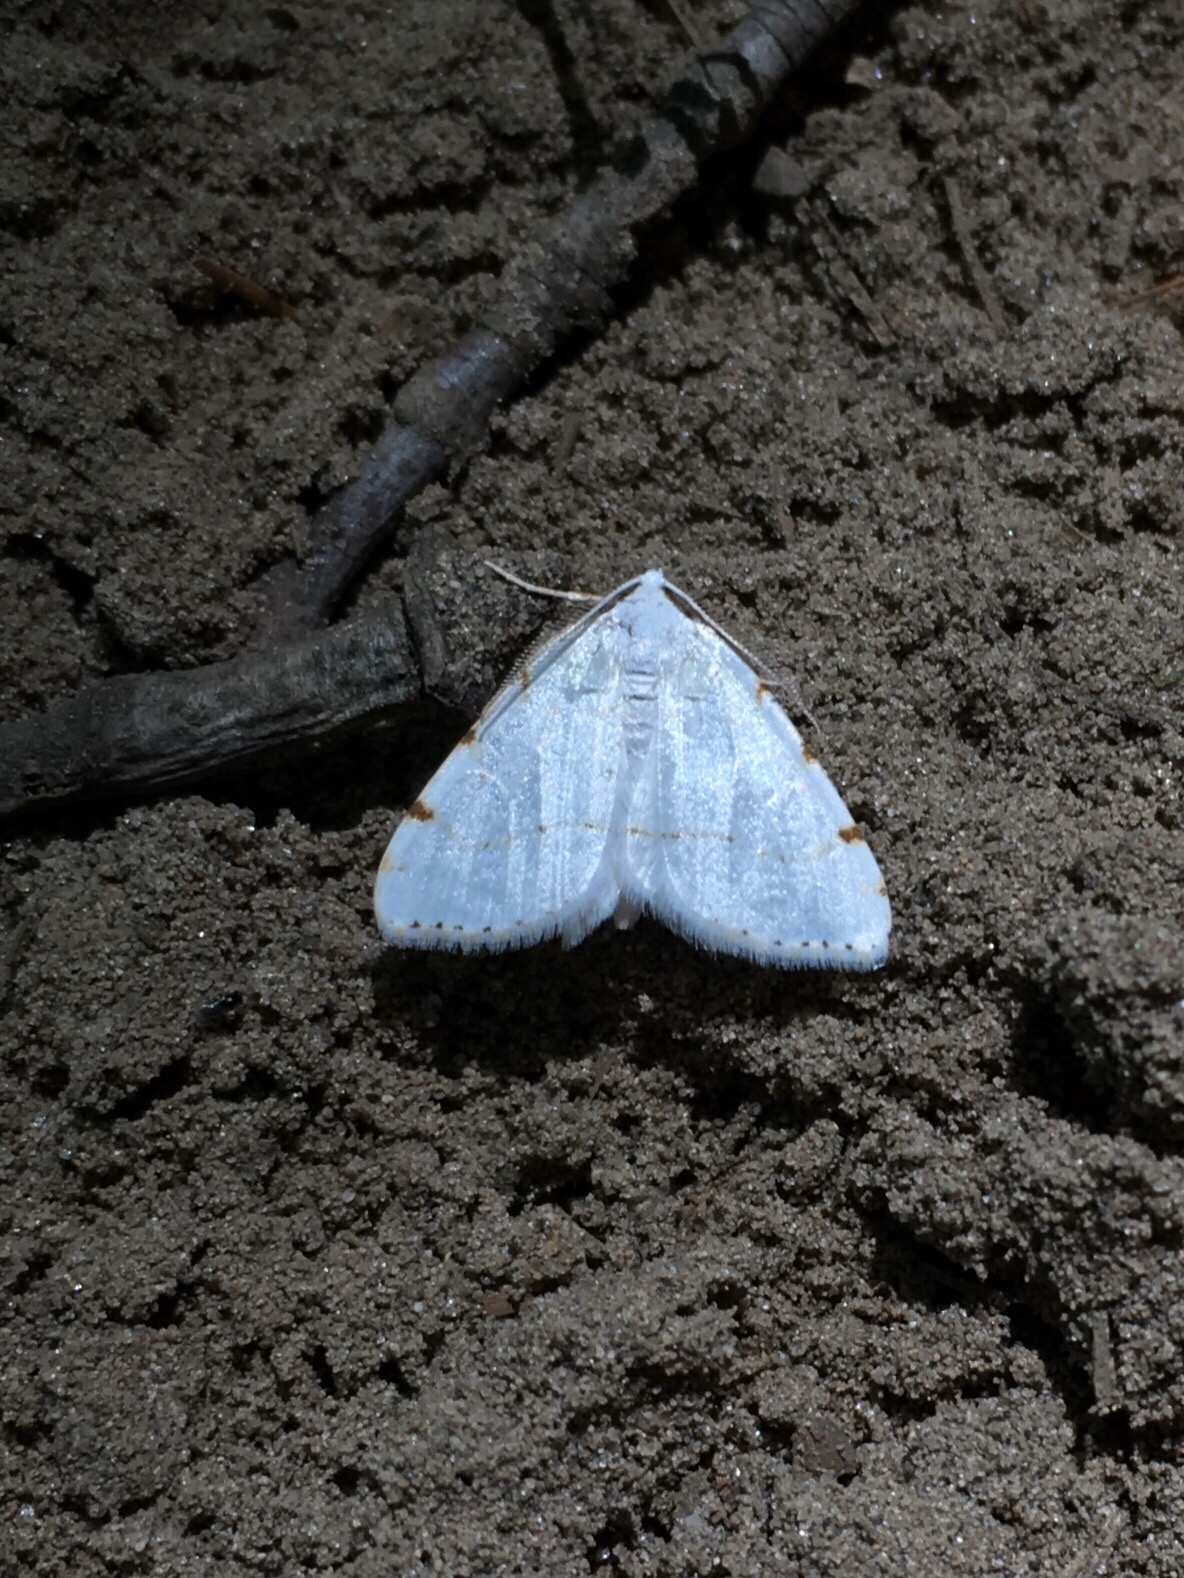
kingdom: Animalia
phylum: Arthropoda
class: Insecta
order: Lepidoptera
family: Geometridae
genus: Macaria
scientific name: Macaria pustularia
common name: Lesser maple spanworm moth
